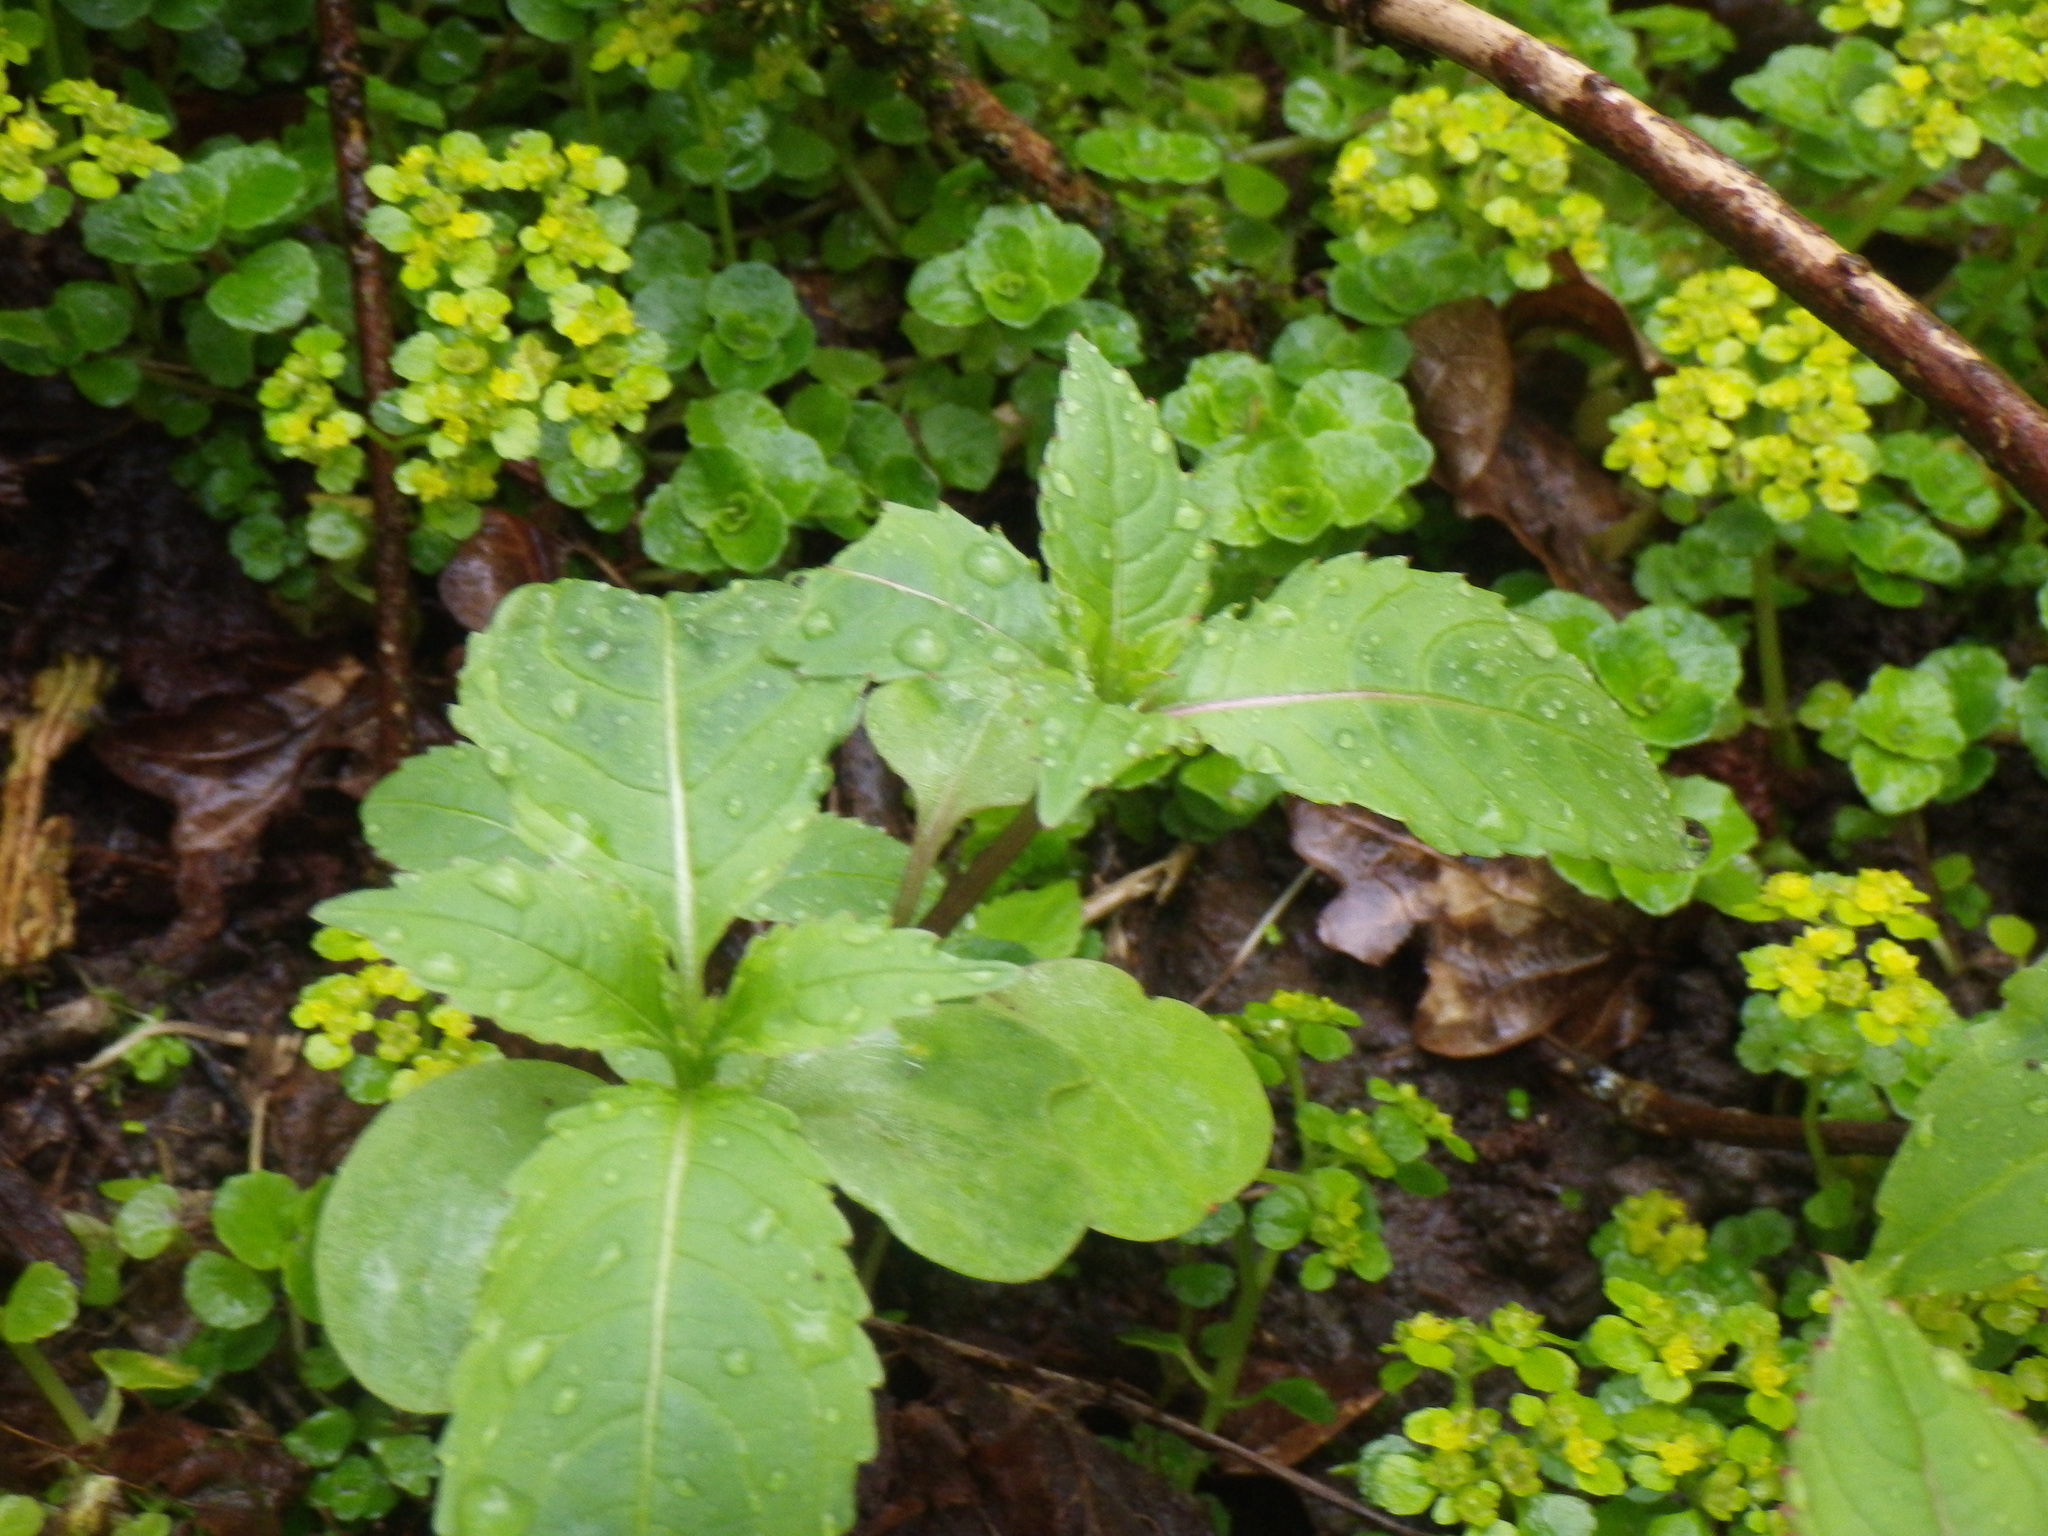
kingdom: Plantae
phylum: Tracheophyta
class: Magnoliopsida
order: Ericales
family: Balsaminaceae
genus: Impatiens
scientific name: Impatiens glandulifera
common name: Himalayan balsam
